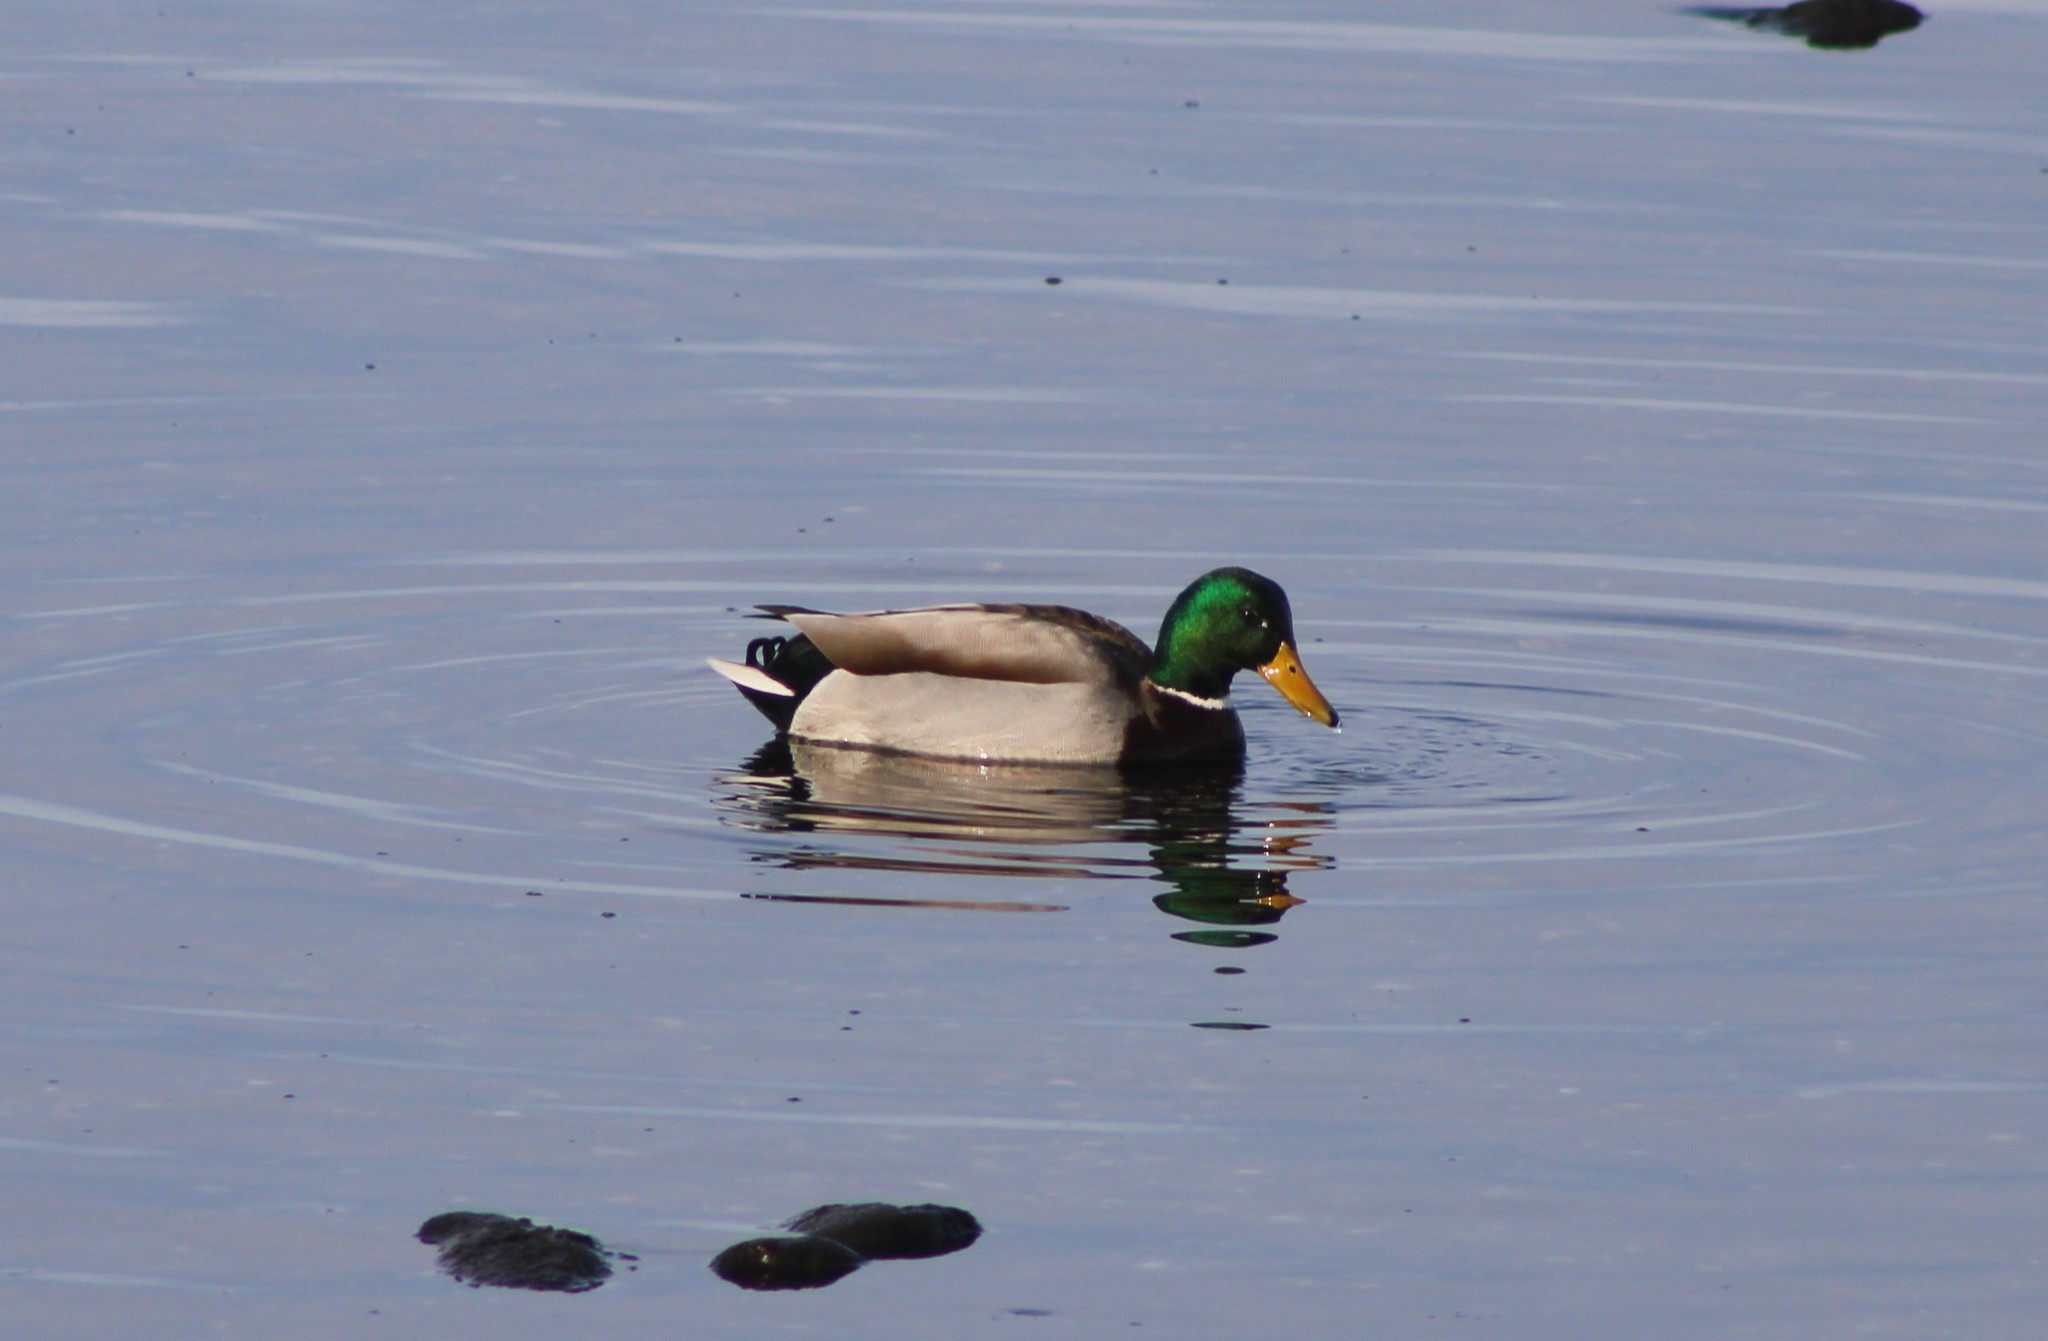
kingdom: Animalia
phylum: Chordata
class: Aves
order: Anseriformes
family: Anatidae
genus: Anas
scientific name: Anas platyrhynchos
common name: Mallard
